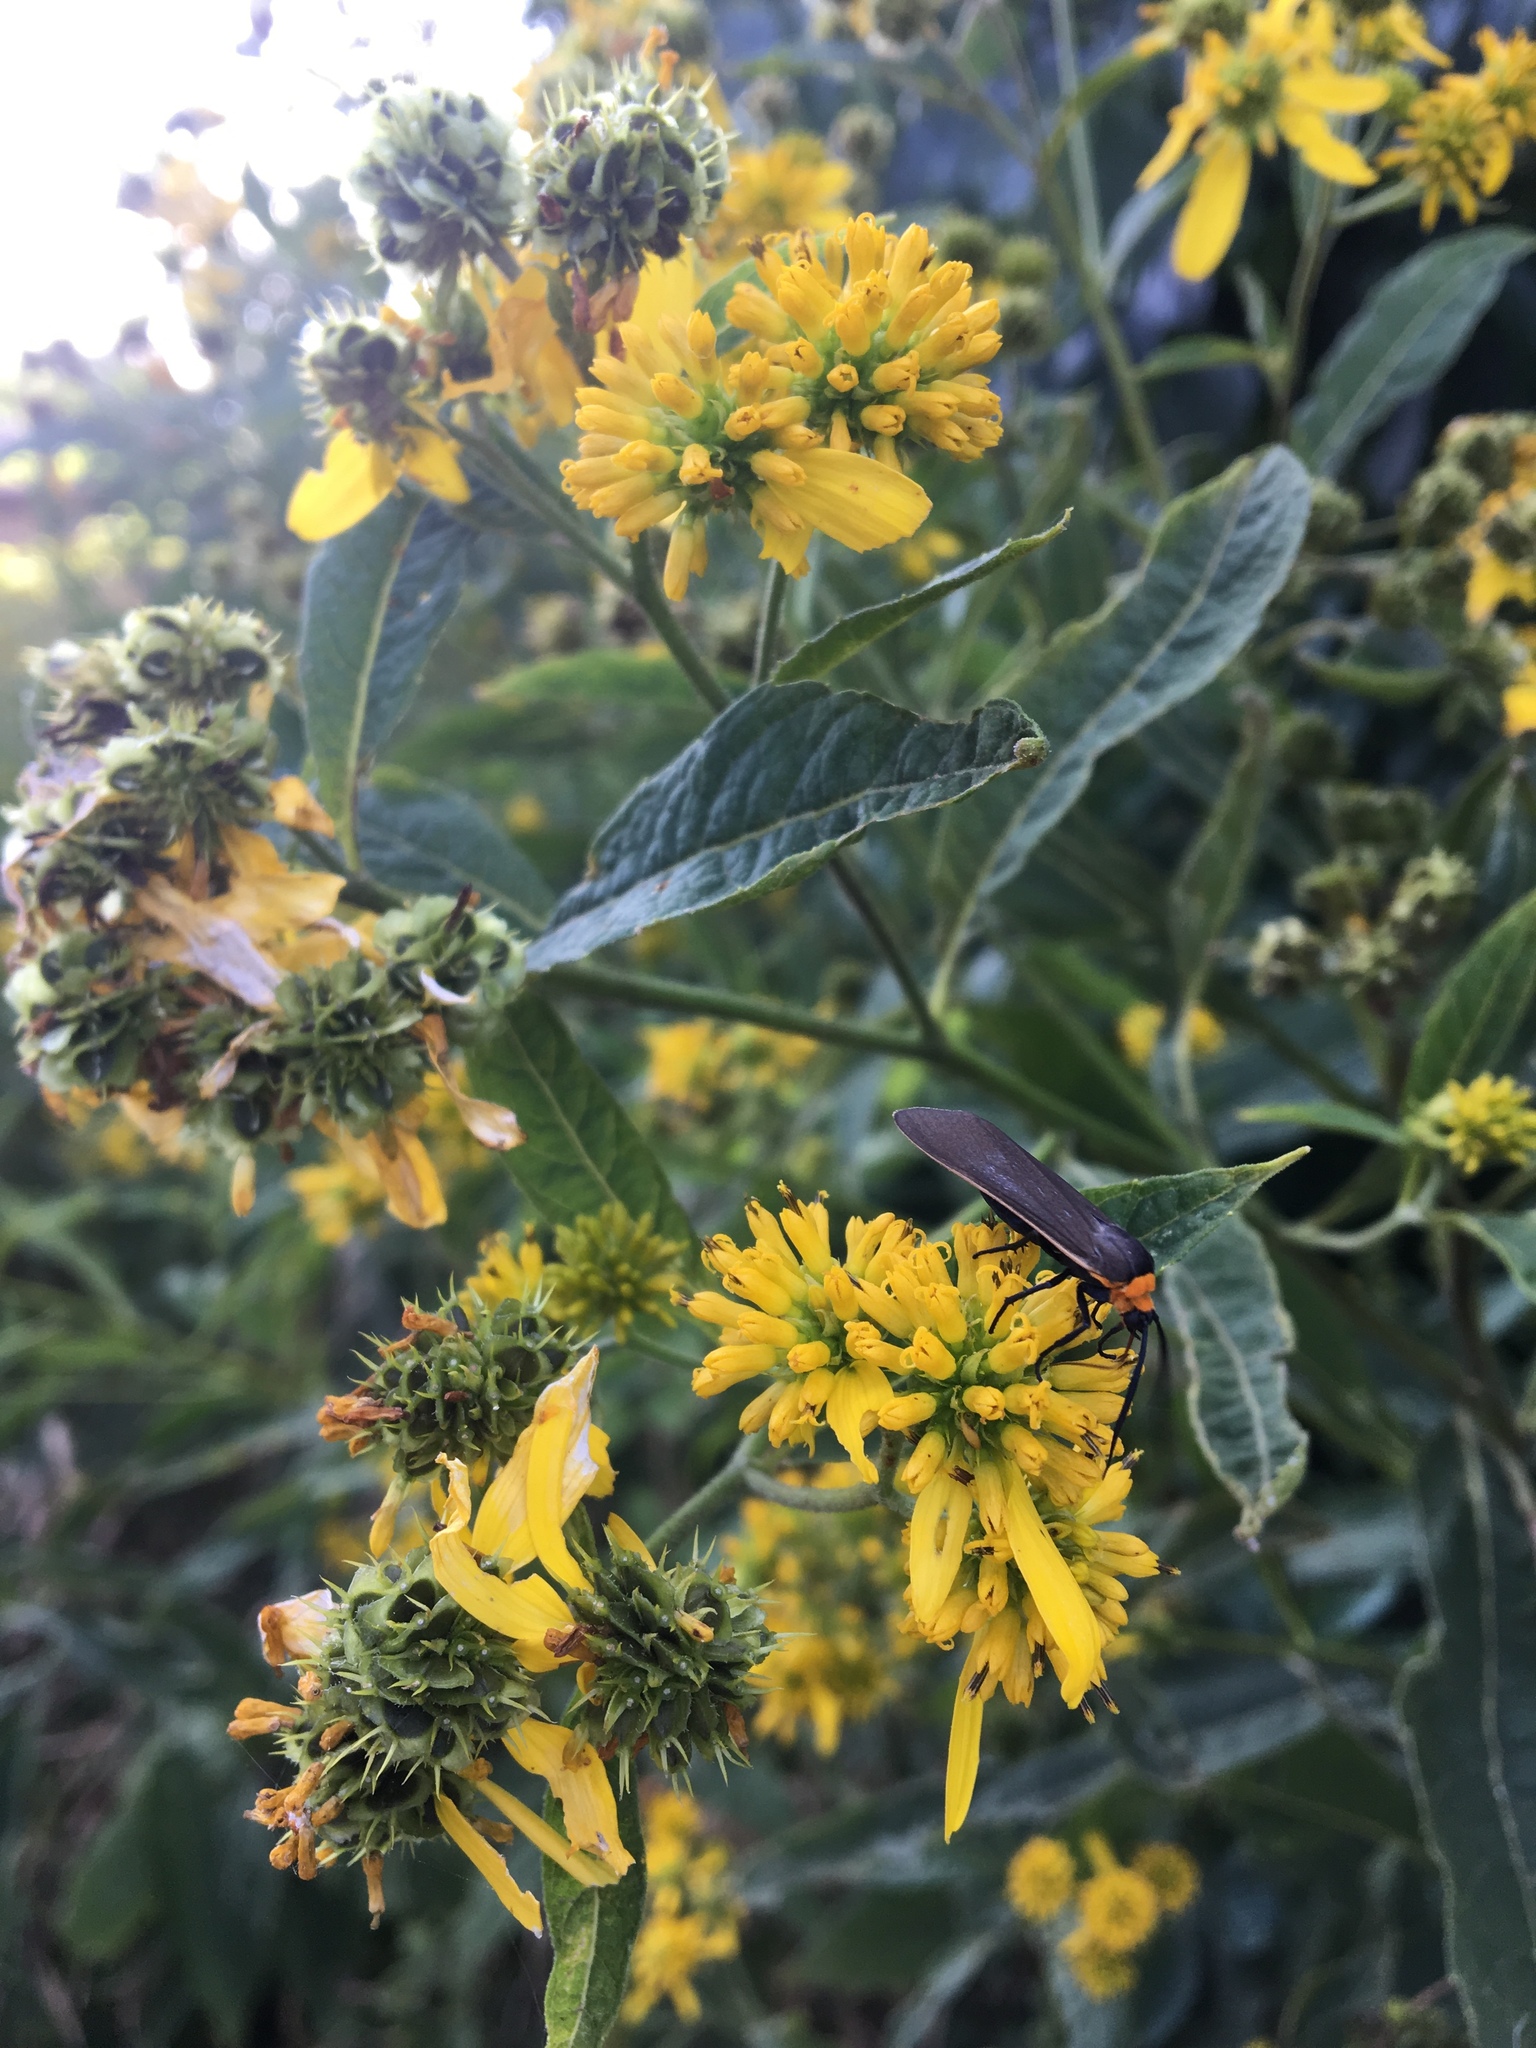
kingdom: Animalia
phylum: Arthropoda
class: Insecta
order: Lepidoptera
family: Erebidae
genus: Cisseps
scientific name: Cisseps fulvicollis
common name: Yellow-collared scape moth
